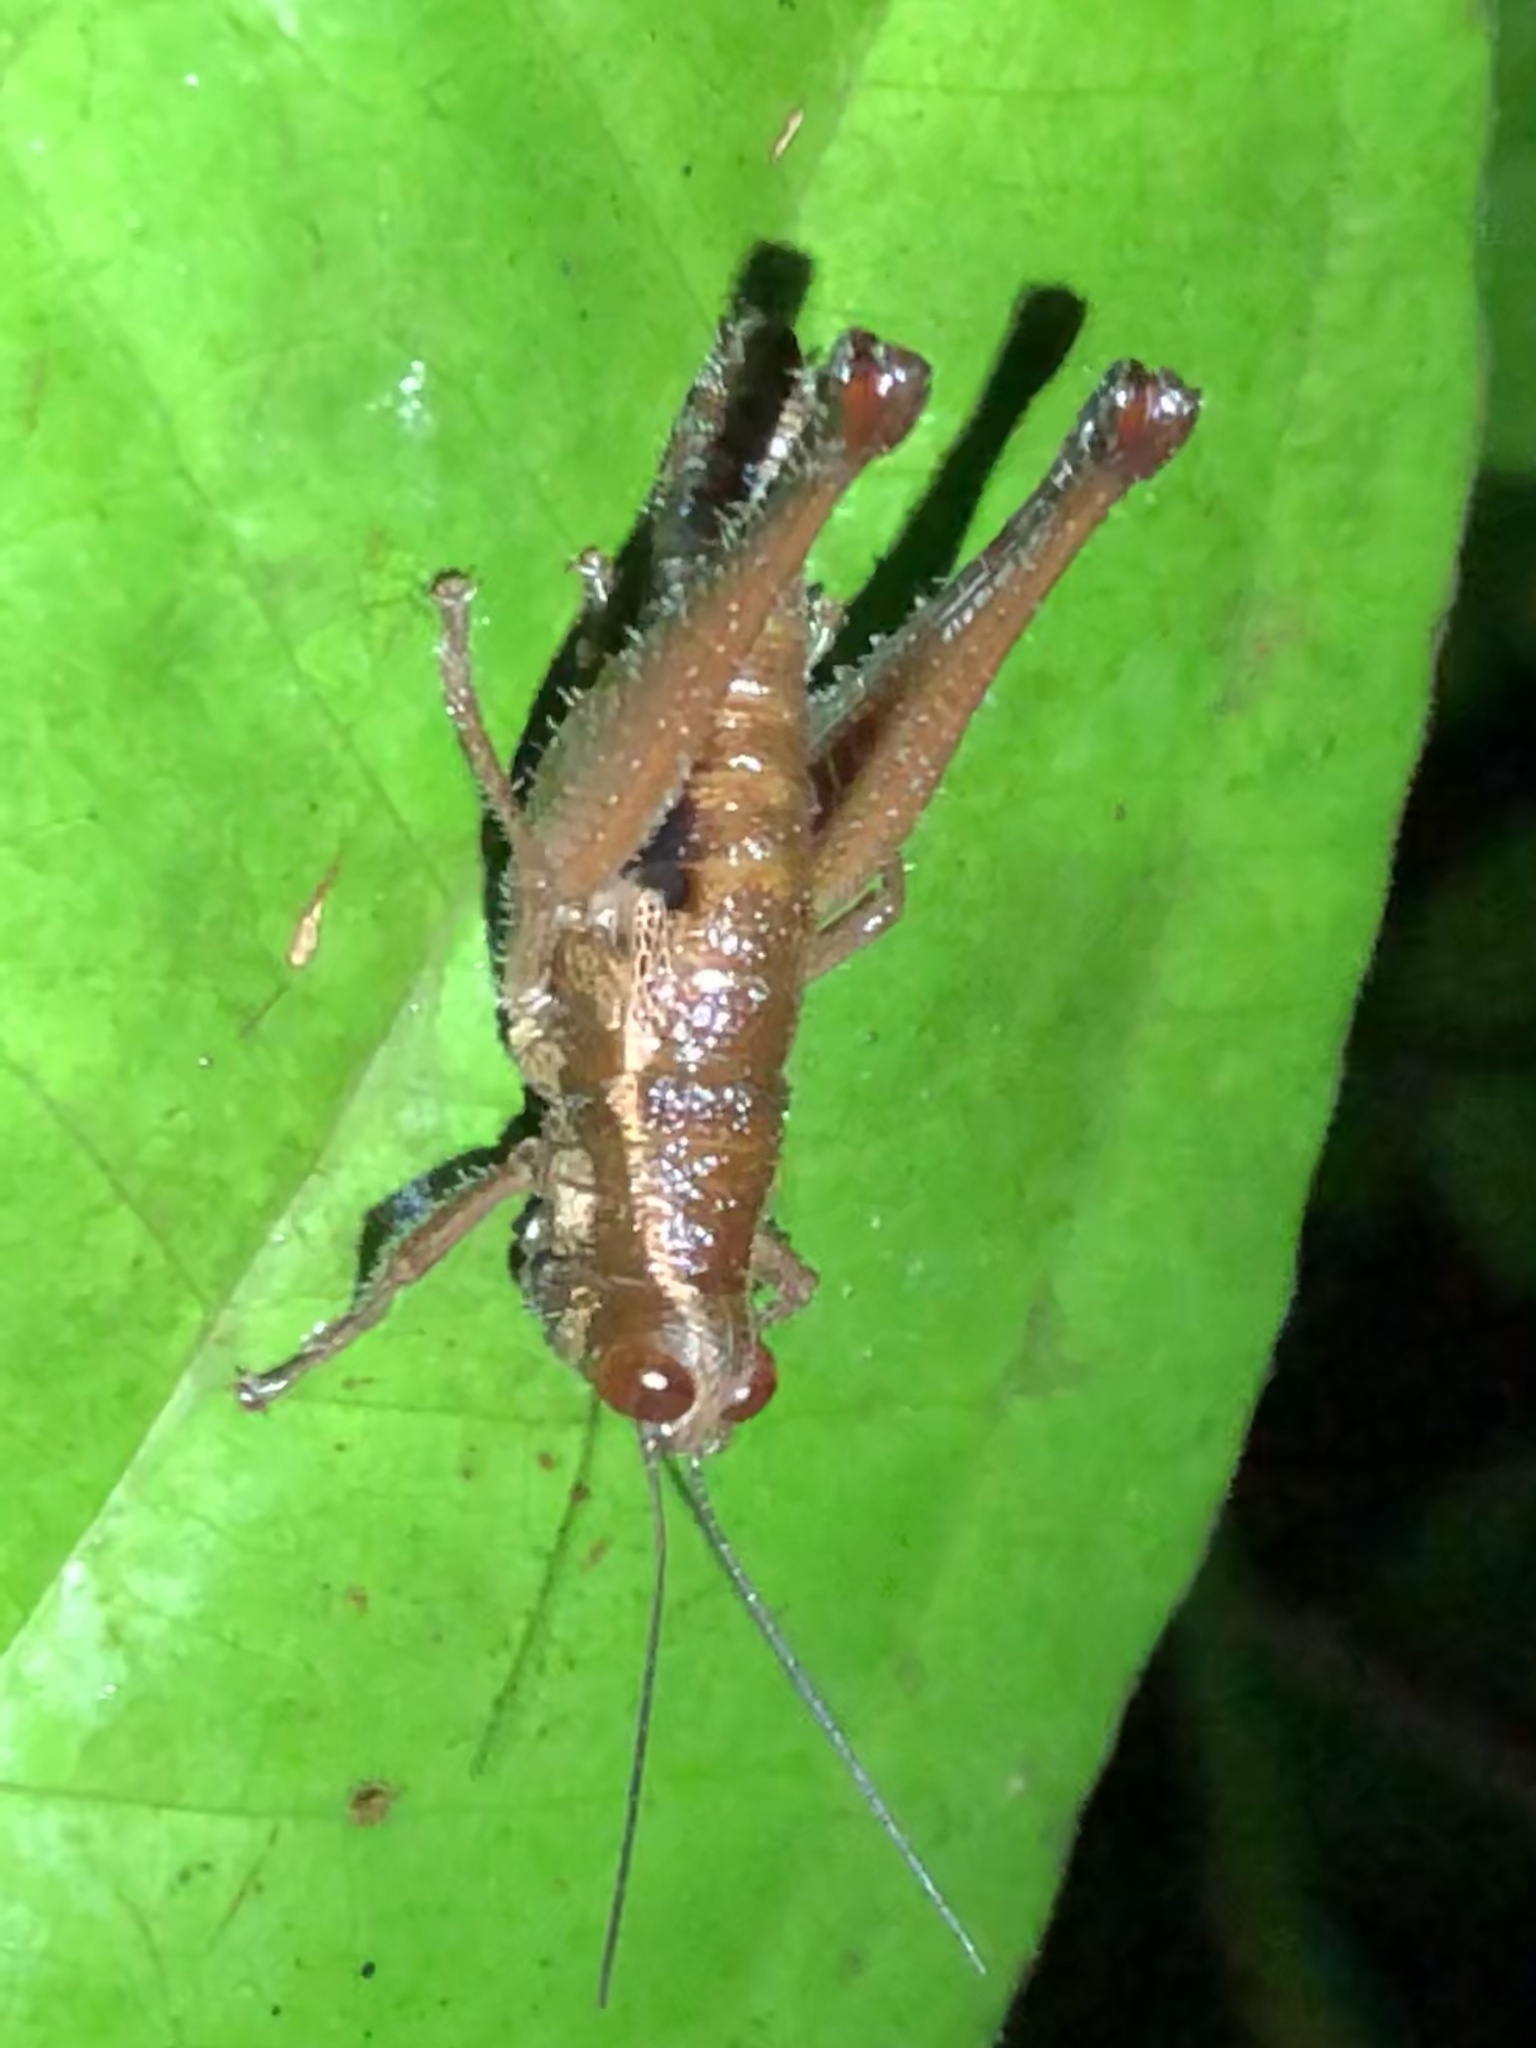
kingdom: Animalia
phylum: Arthropoda
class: Insecta
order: Orthoptera
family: Acrididae
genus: Stenelutracris
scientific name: Stenelutracris lignicola
